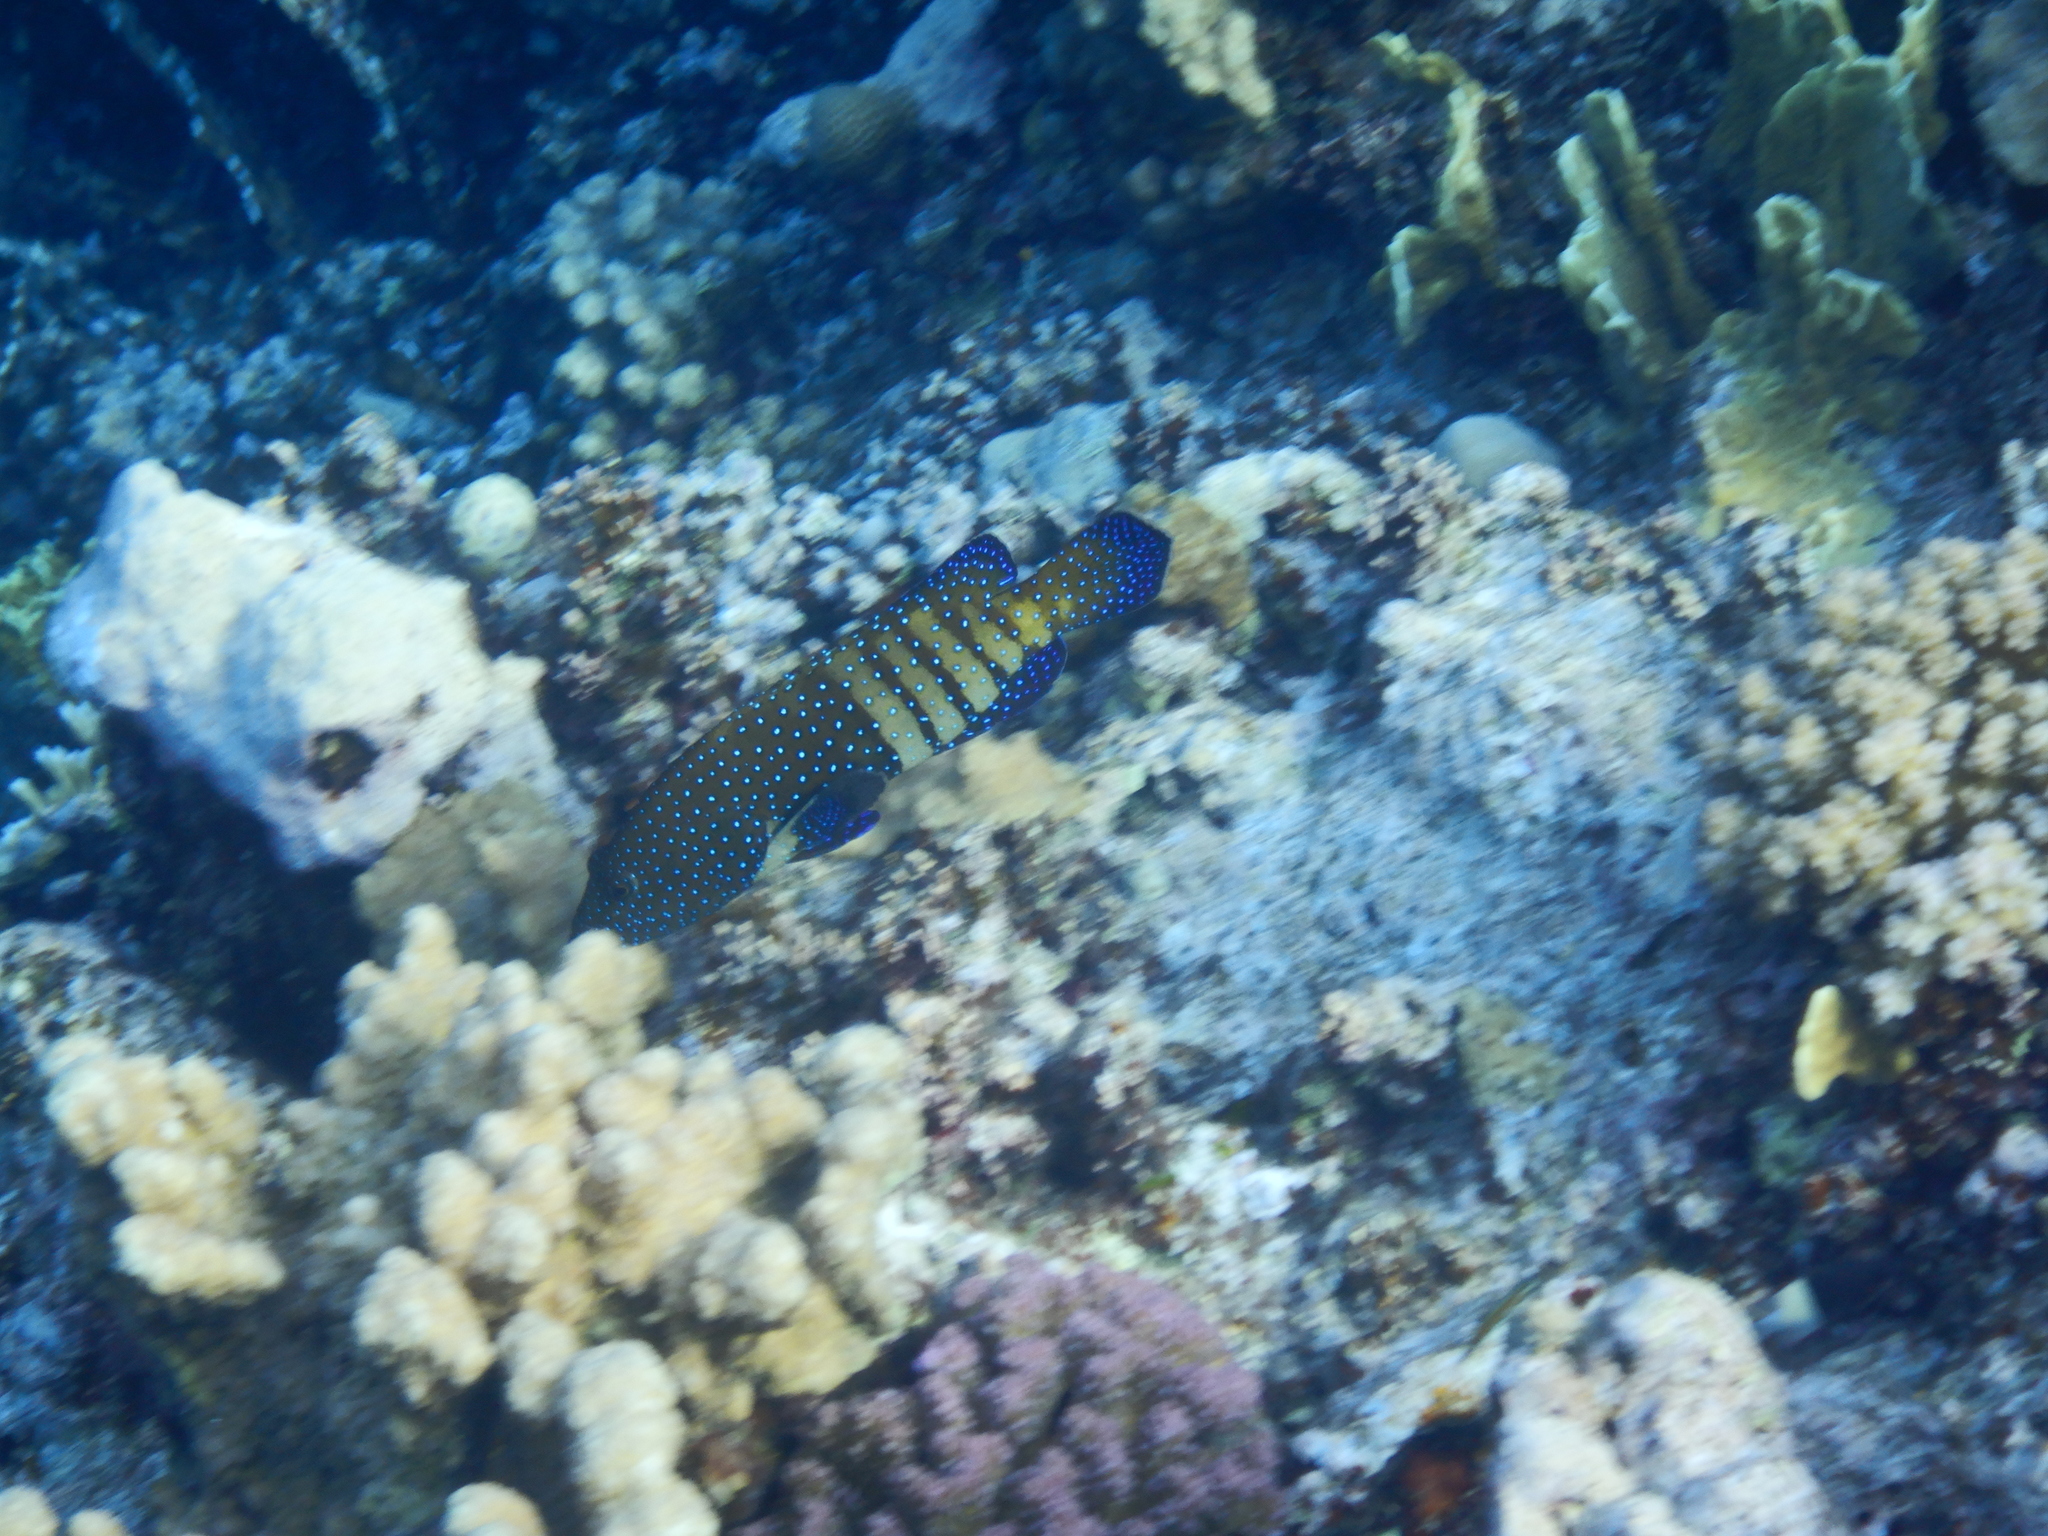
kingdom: Animalia
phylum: Chordata
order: Perciformes
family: Serranidae
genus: Cephalopholis
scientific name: Cephalopholis argus
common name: Peacock grouper
